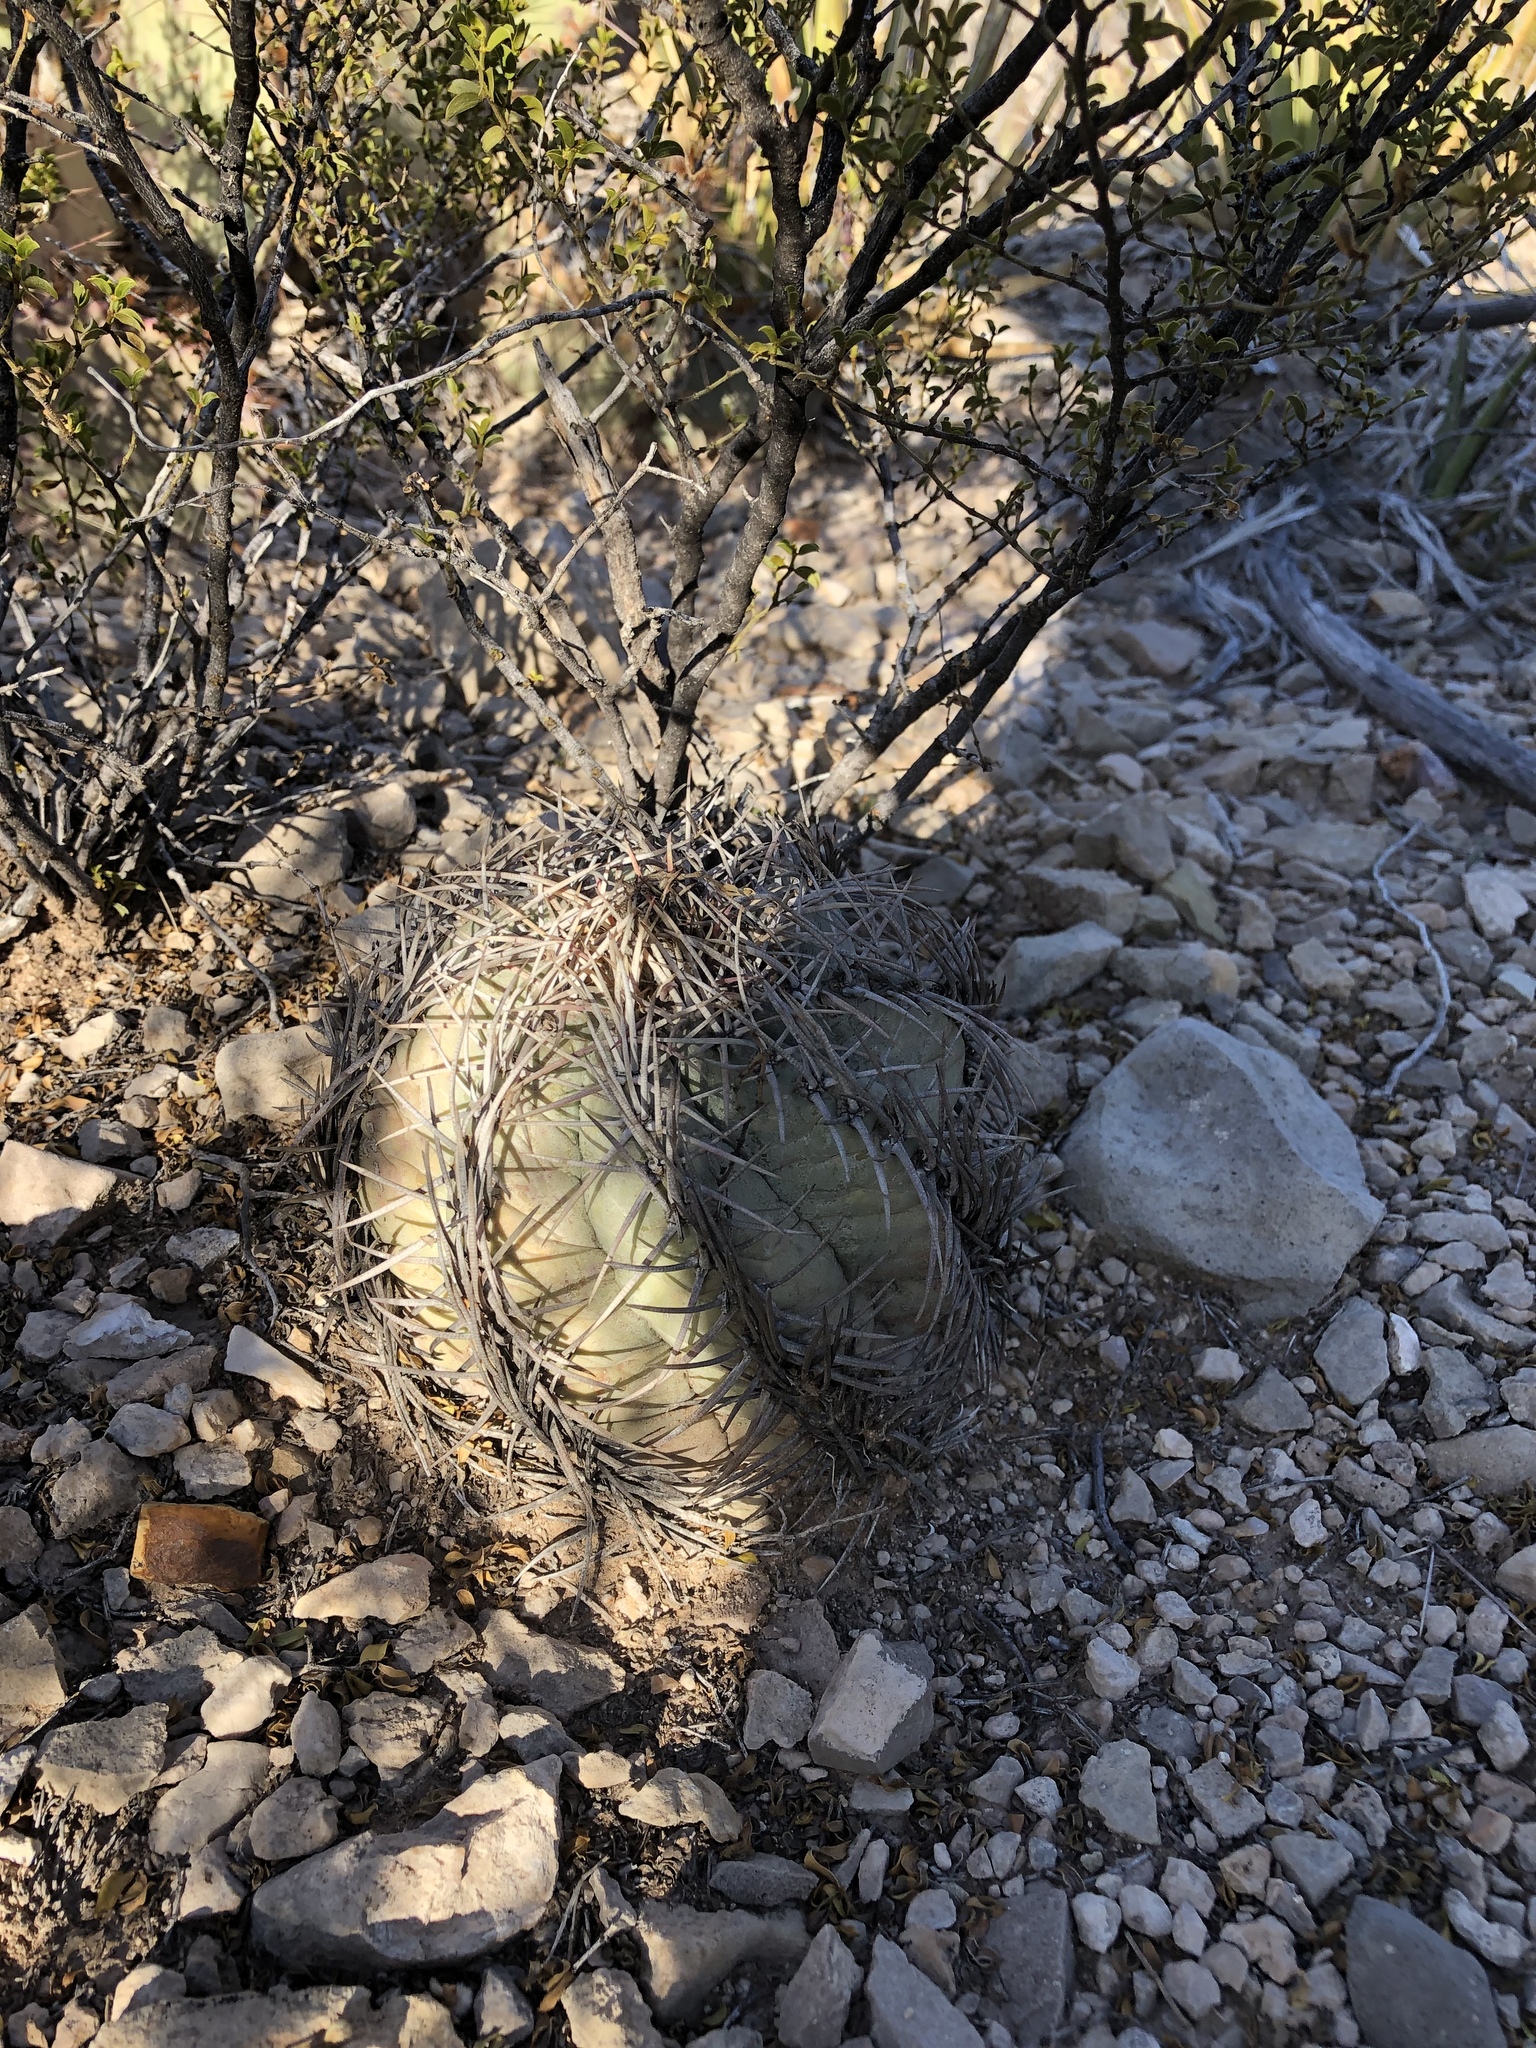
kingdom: Plantae
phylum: Tracheophyta
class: Magnoliopsida
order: Caryophyllales
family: Cactaceae
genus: Echinocactus
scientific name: Echinocactus horizonthalonius
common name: Devilshead
